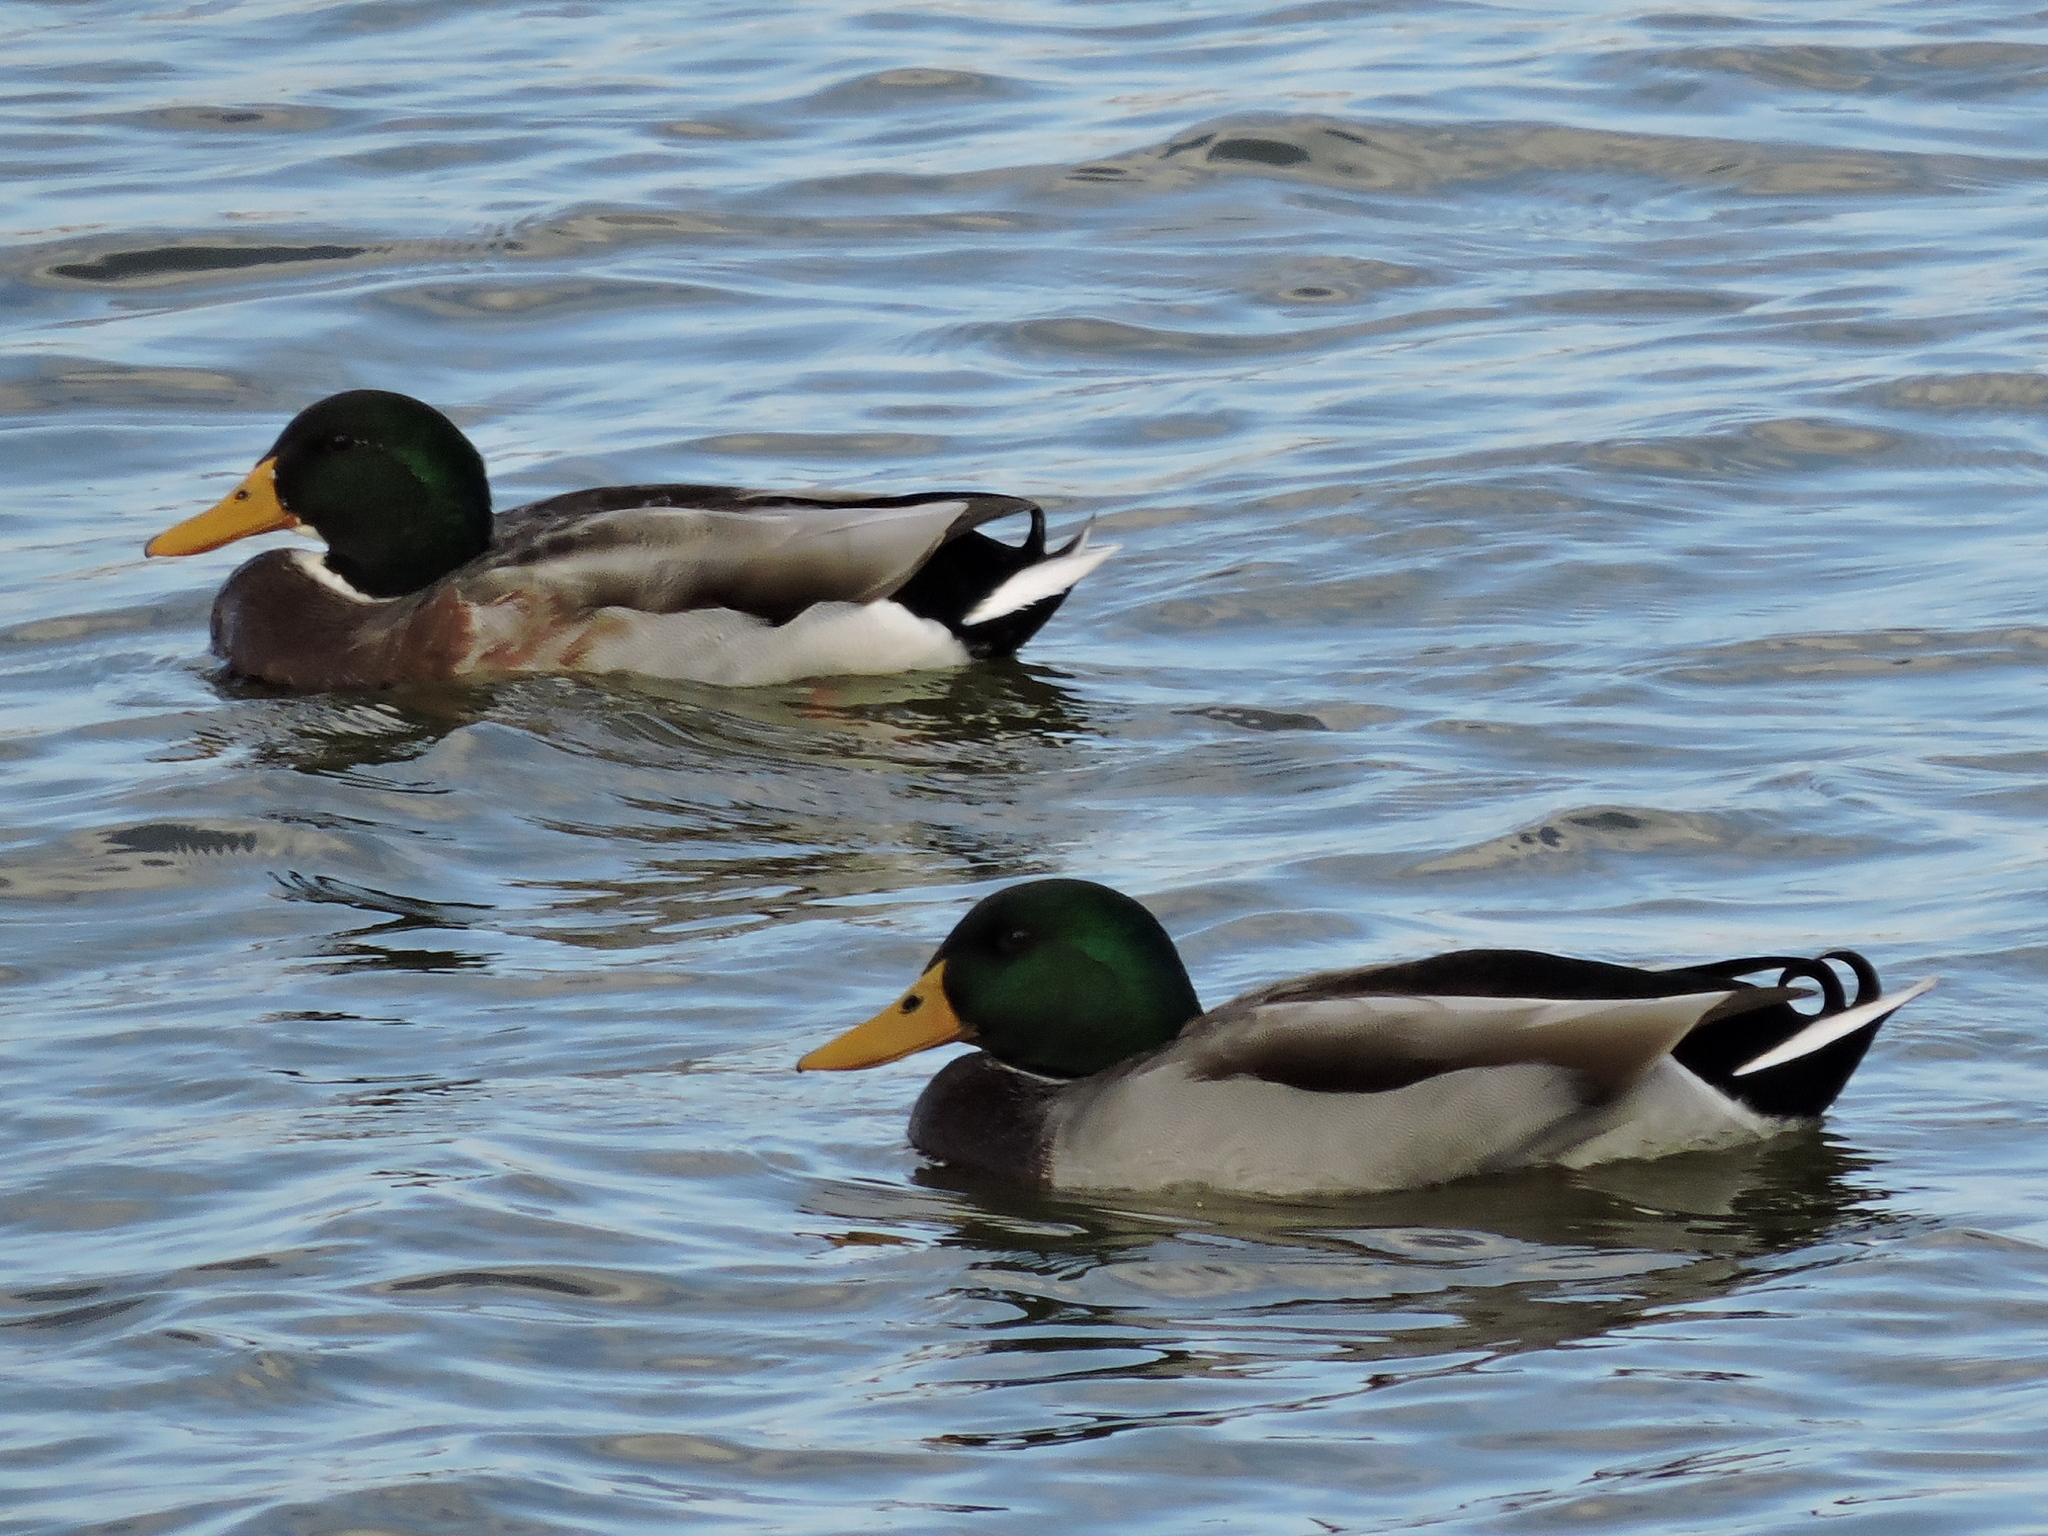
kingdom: Animalia
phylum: Chordata
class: Aves
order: Anseriformes
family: Anatidae
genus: Anas
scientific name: Anas platyrhynchos
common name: Mallard
